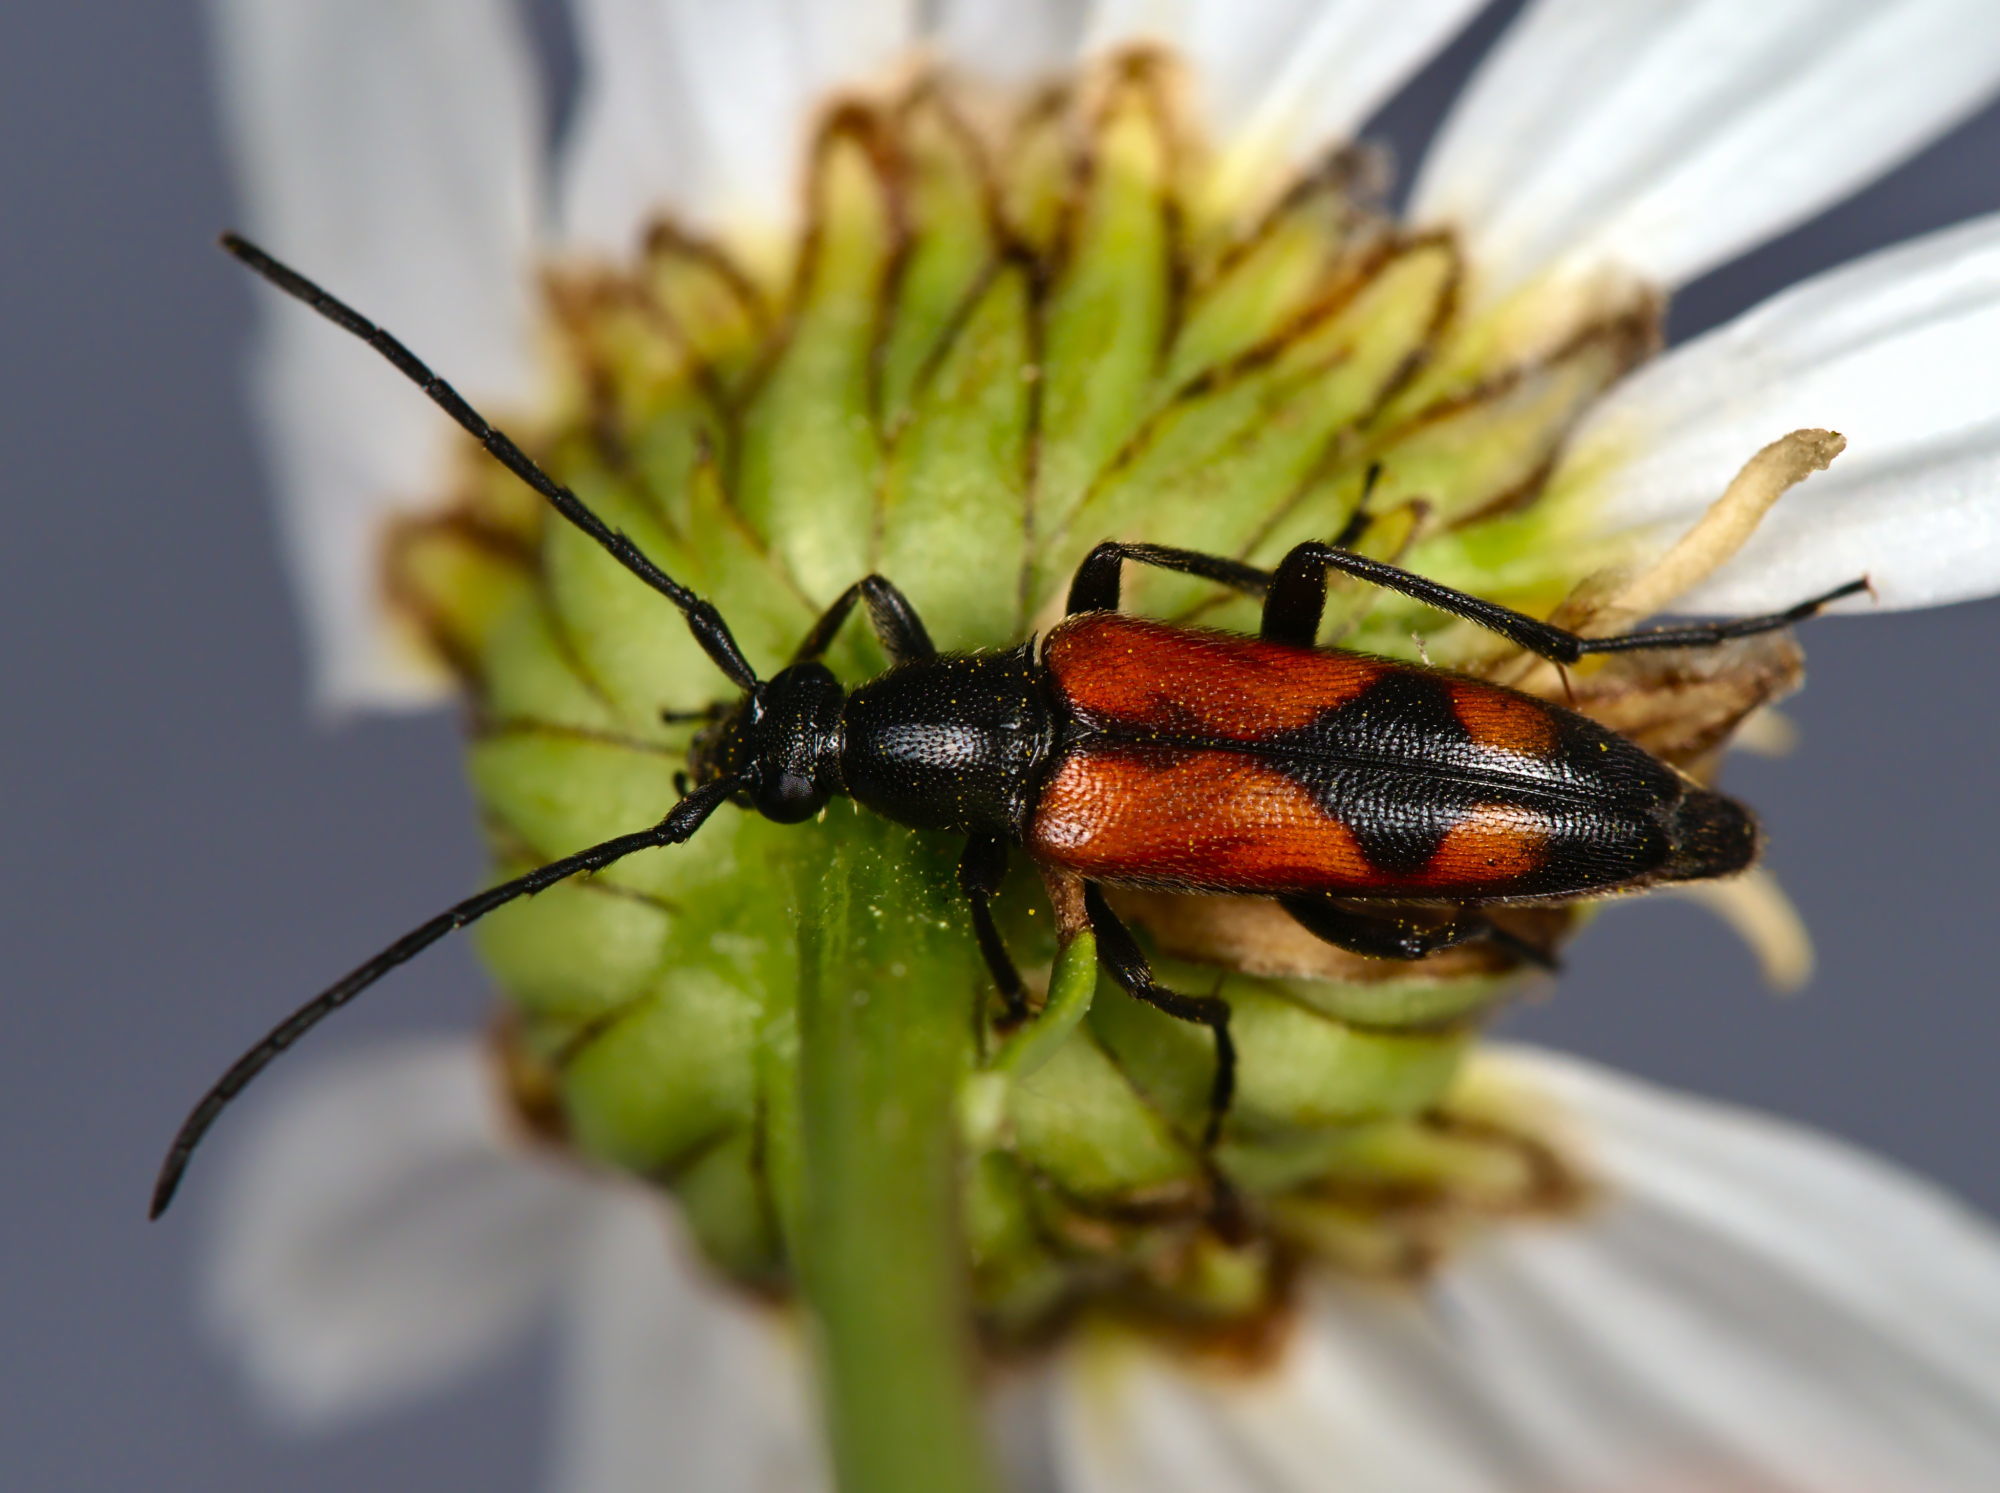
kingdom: Animalia
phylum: Arthropoda
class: Insecta
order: Coleoptera
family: Cerambycidae
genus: Stenurella
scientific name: Stenurella bifasciata
